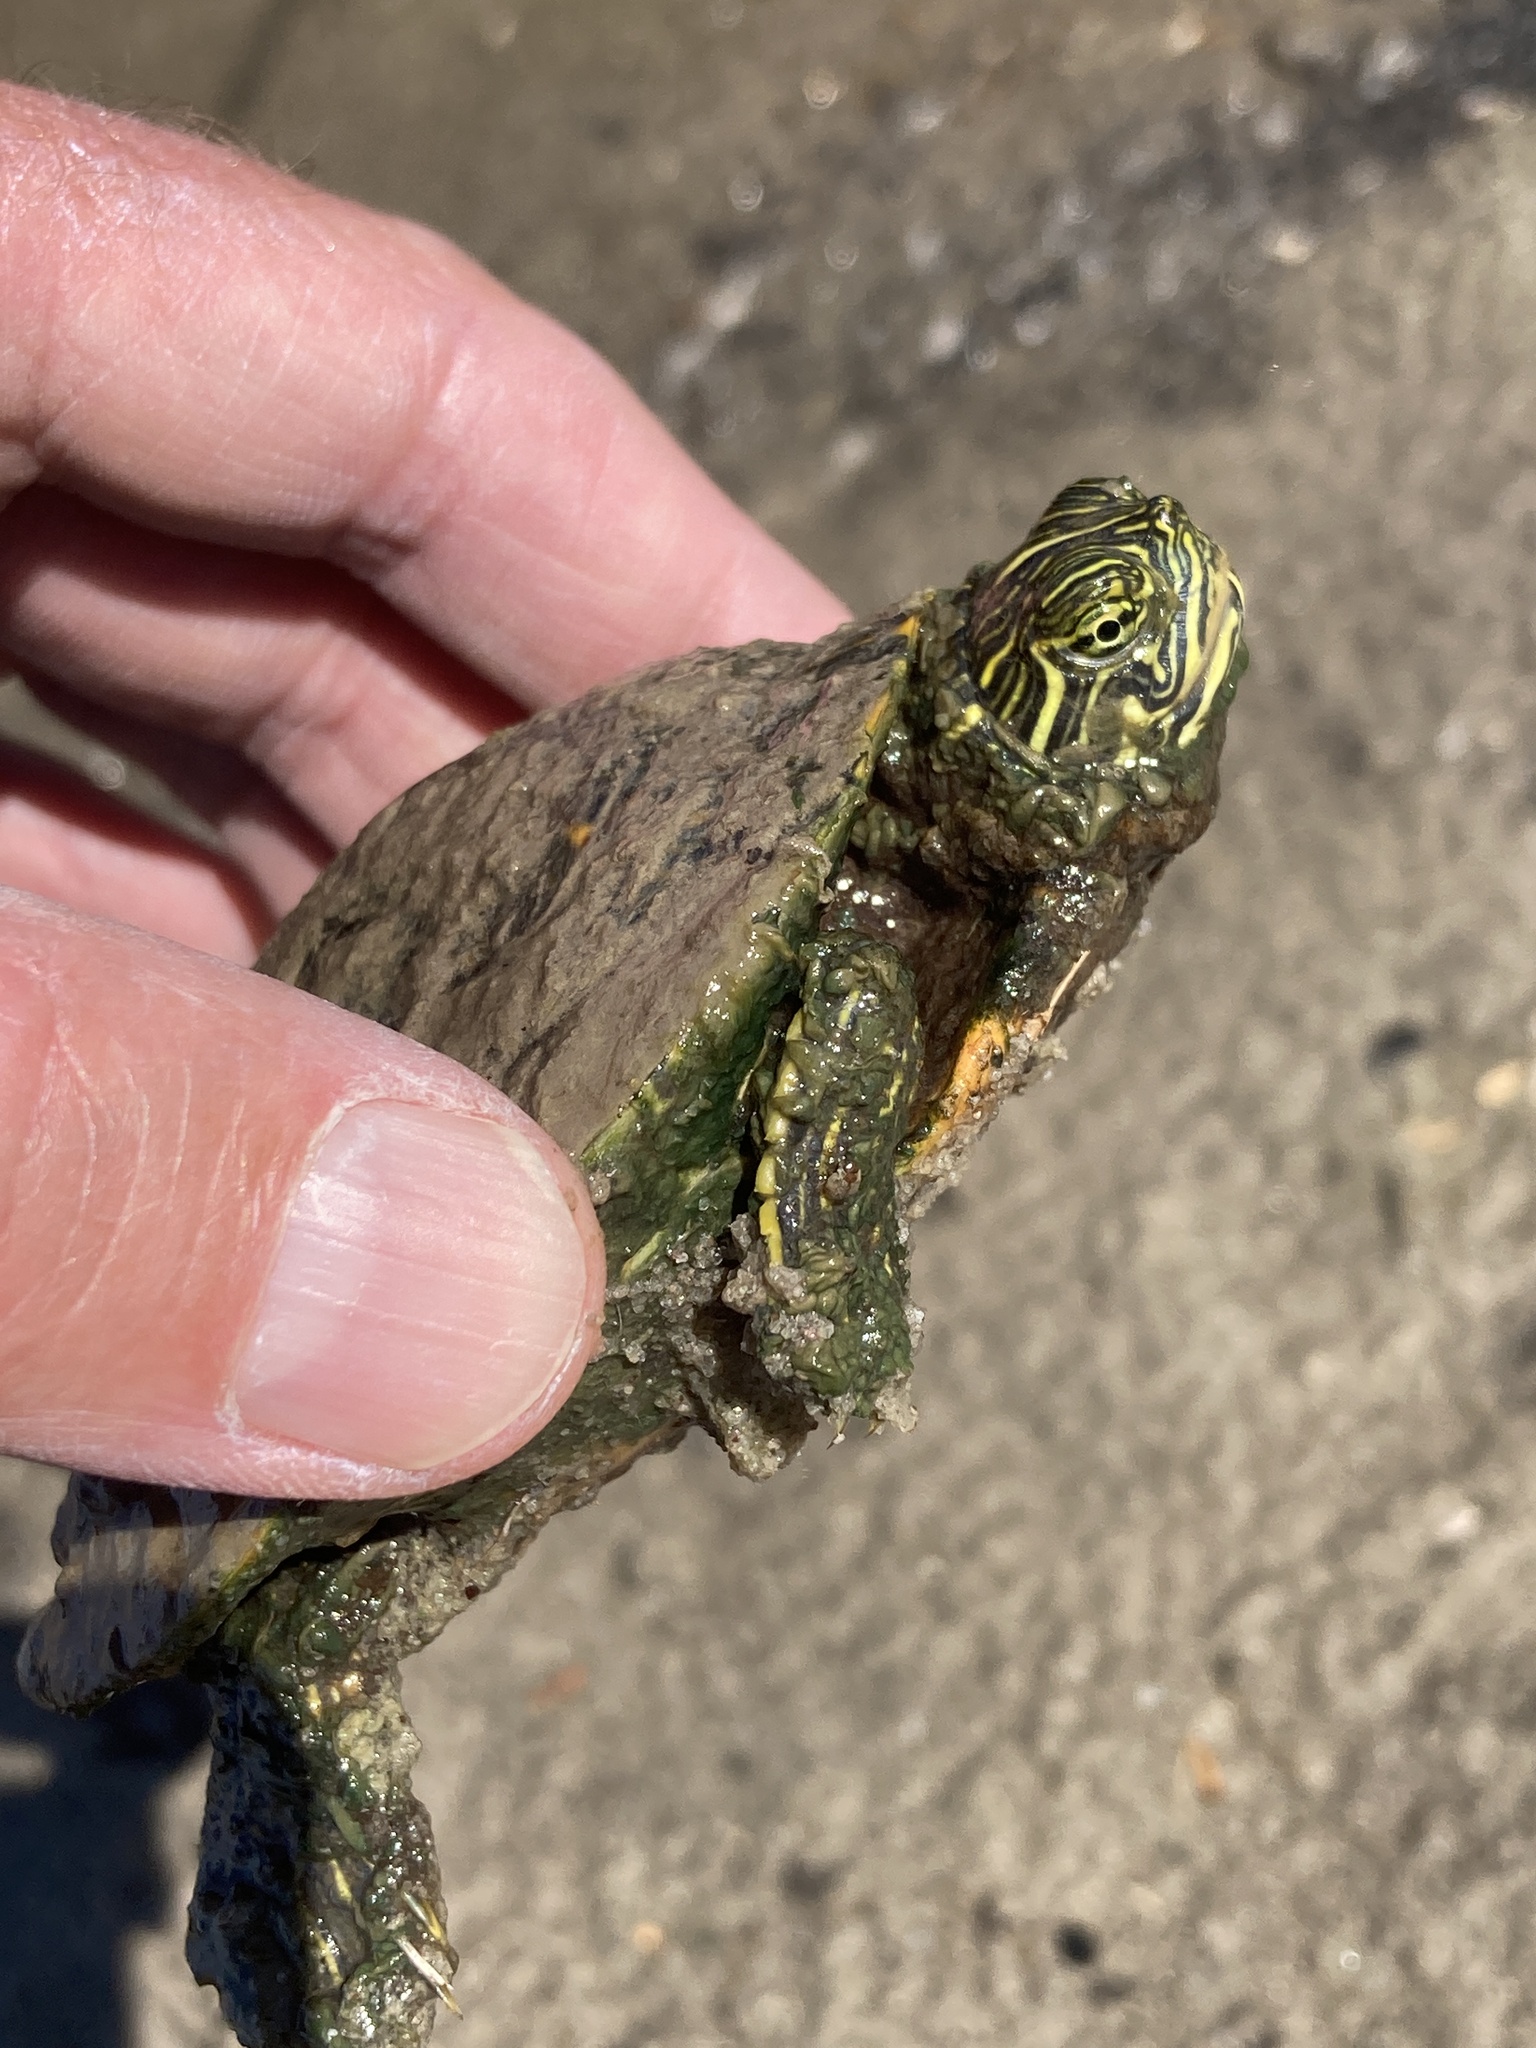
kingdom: Animalia
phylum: Chordata
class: Testudines
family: Emydidae
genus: Pseudemys
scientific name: Pseudemys concinna
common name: Eastern river cooter
